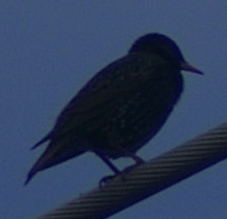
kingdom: Animalia
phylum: Chordata
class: Aves
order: Passeriformes
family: Sturnidae
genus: Sturnus
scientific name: Sturnus vulgaris
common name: Common starling
